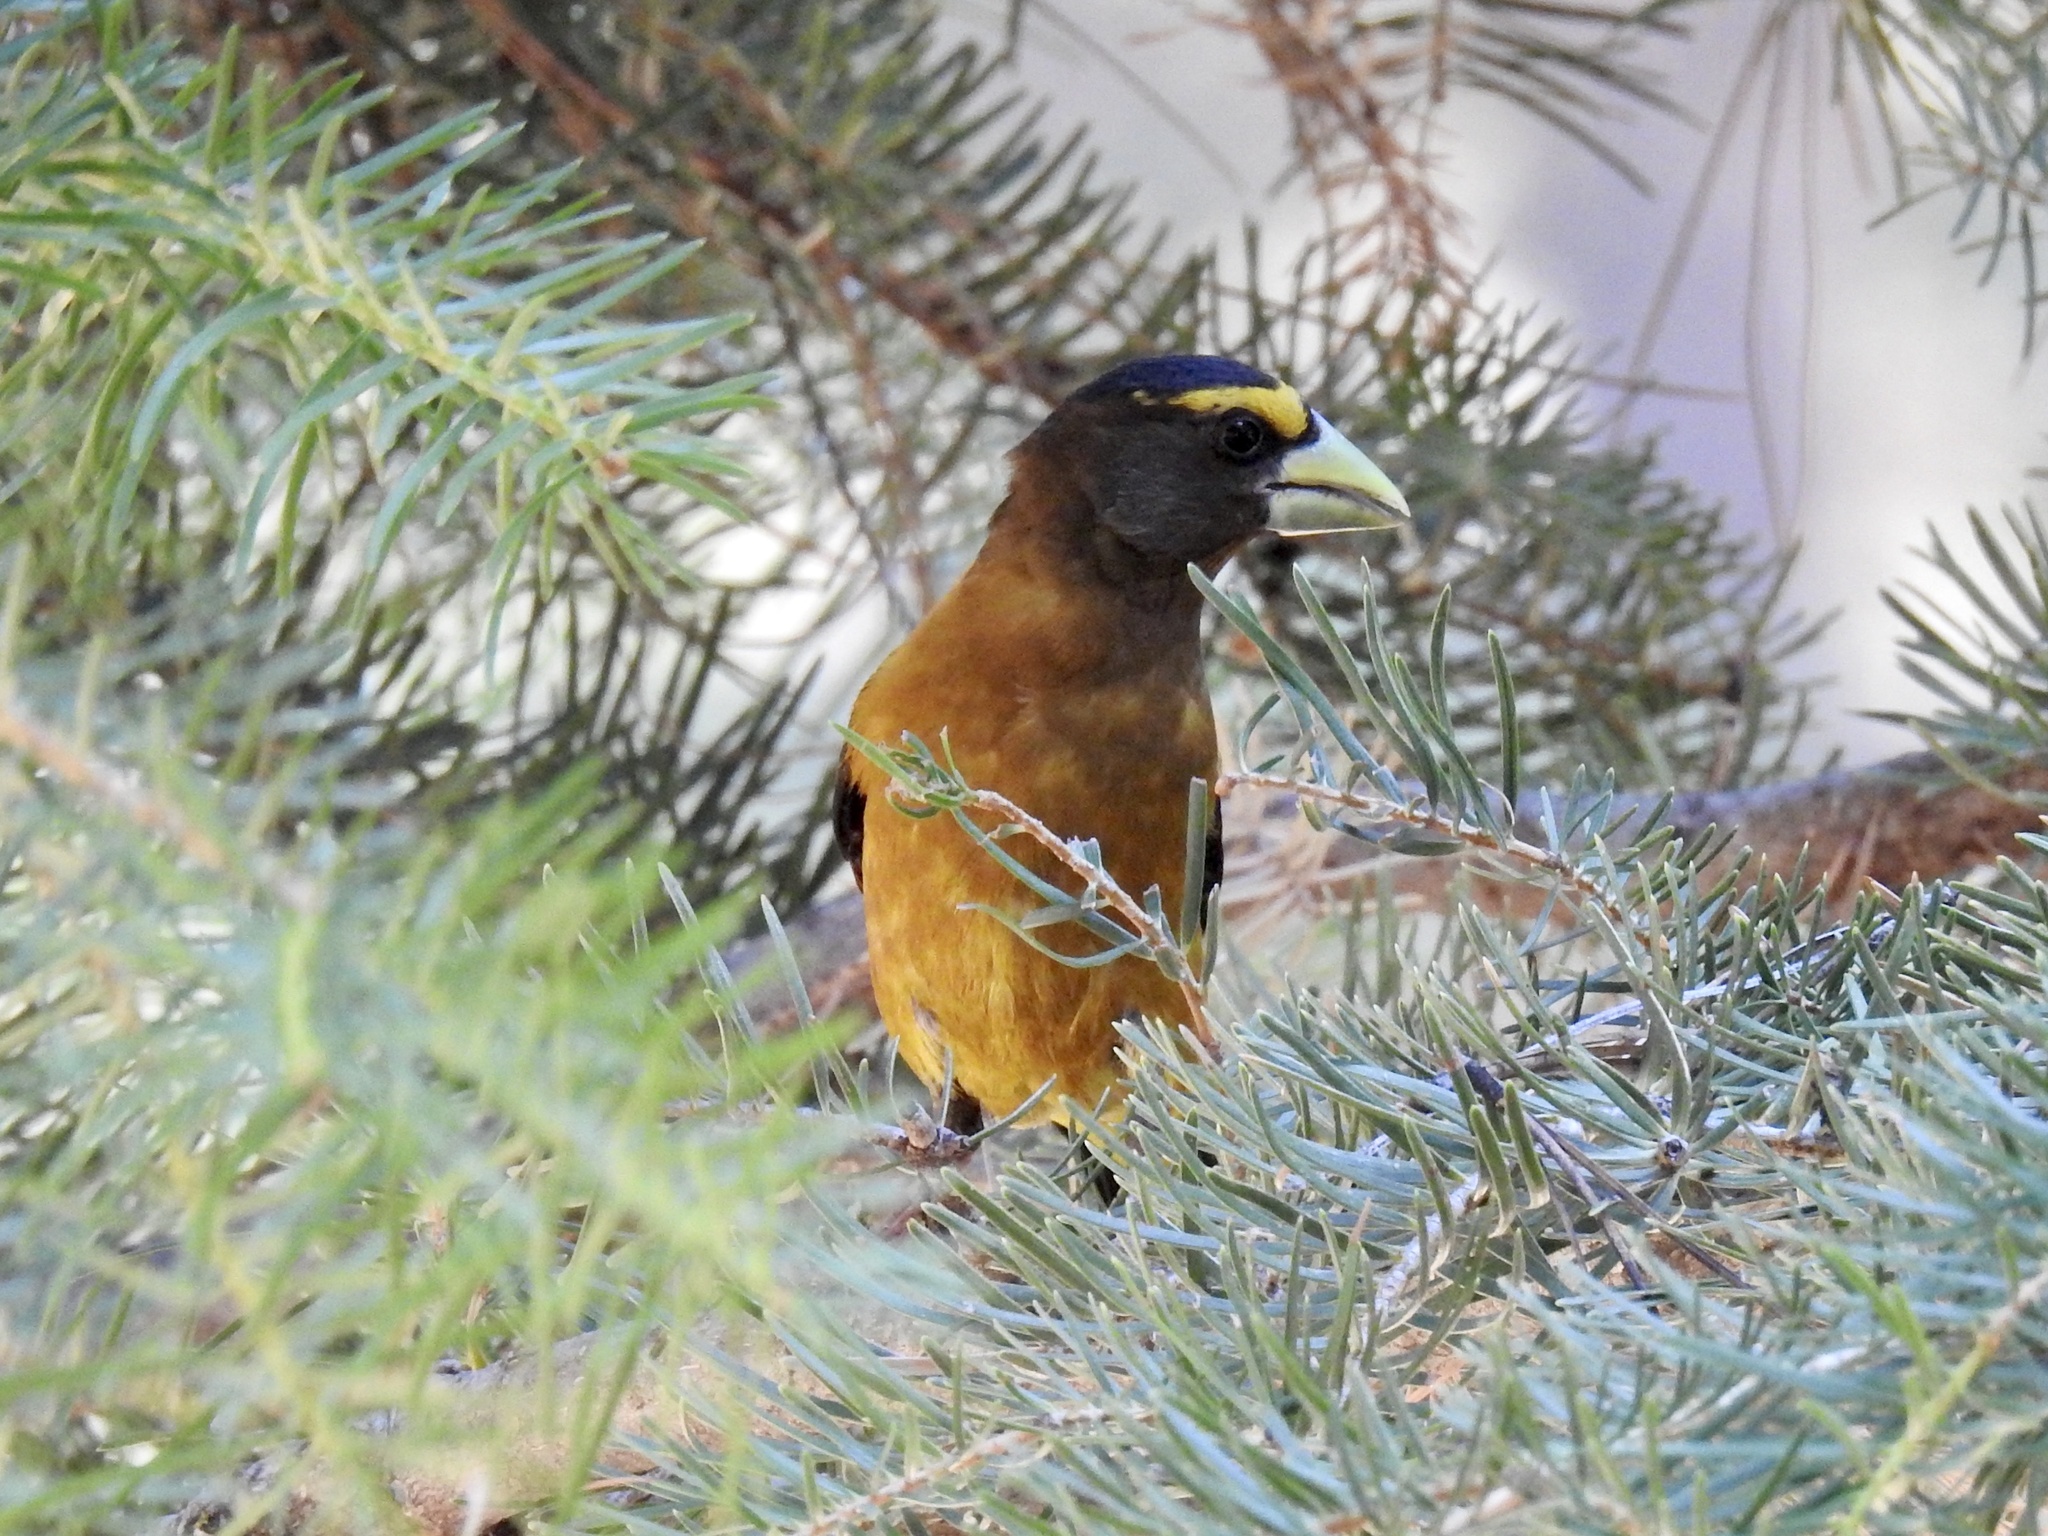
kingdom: Animalia
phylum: Chordata
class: Aves
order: Passeriformes
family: Fringillidae
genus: Hesperiphona
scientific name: Hesperiphona vespertina
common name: Evening grosbeak
